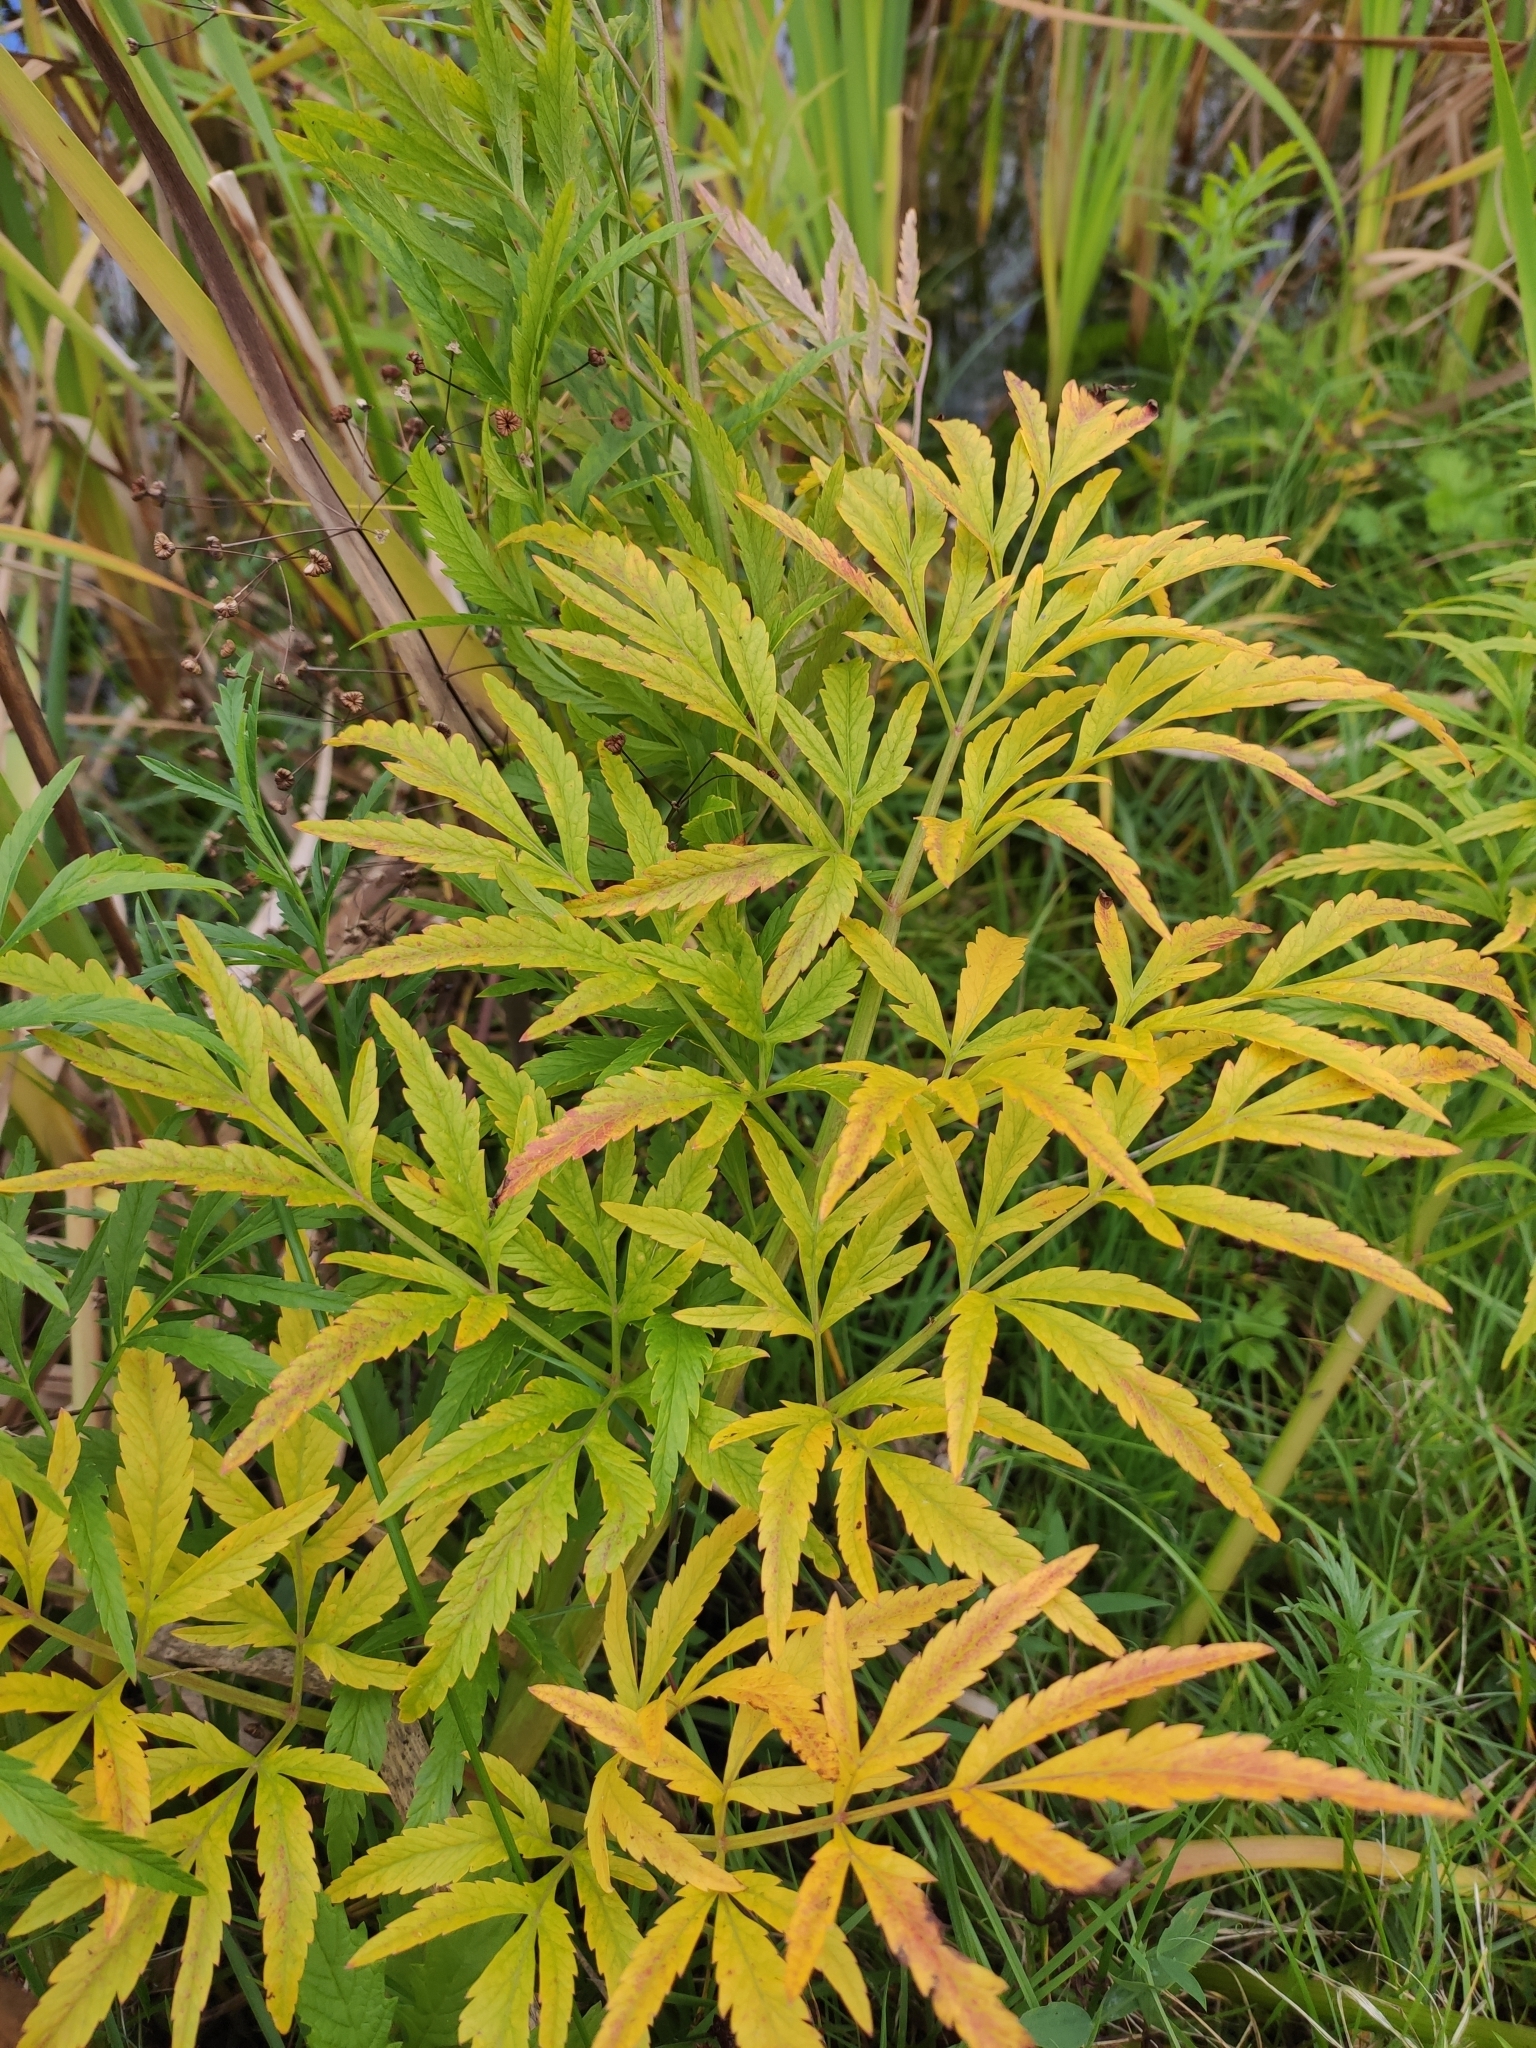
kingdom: Plantae
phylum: Tracheophyta
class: Magnoliopsida
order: Apiales
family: Apiaceae
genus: Cicuta
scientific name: Cicuta virosa
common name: Cowbane
